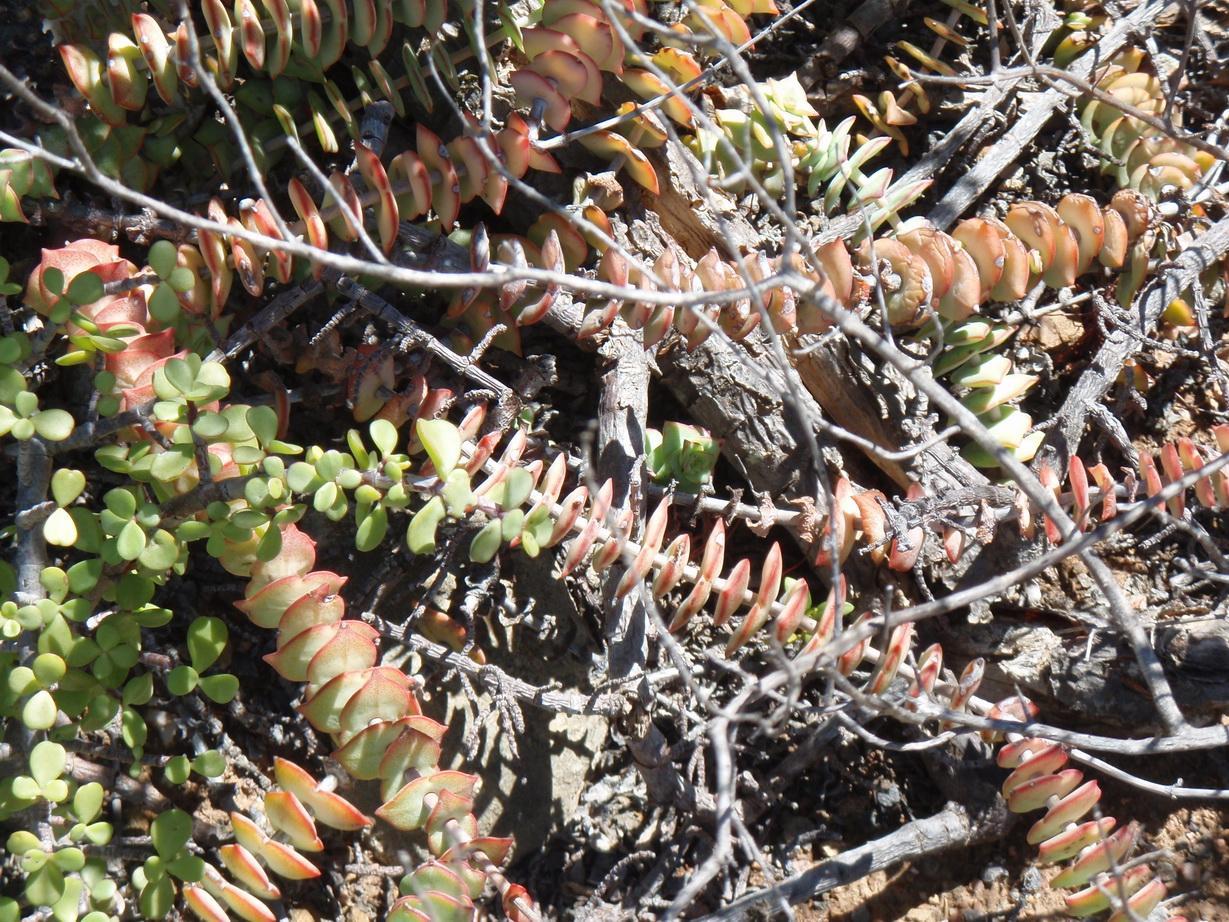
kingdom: Plantae
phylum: Tracheophyta
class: Magnoliopsida
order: Saxifragales
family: Crassulaceae
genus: Crassula
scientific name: Crassula perforata
